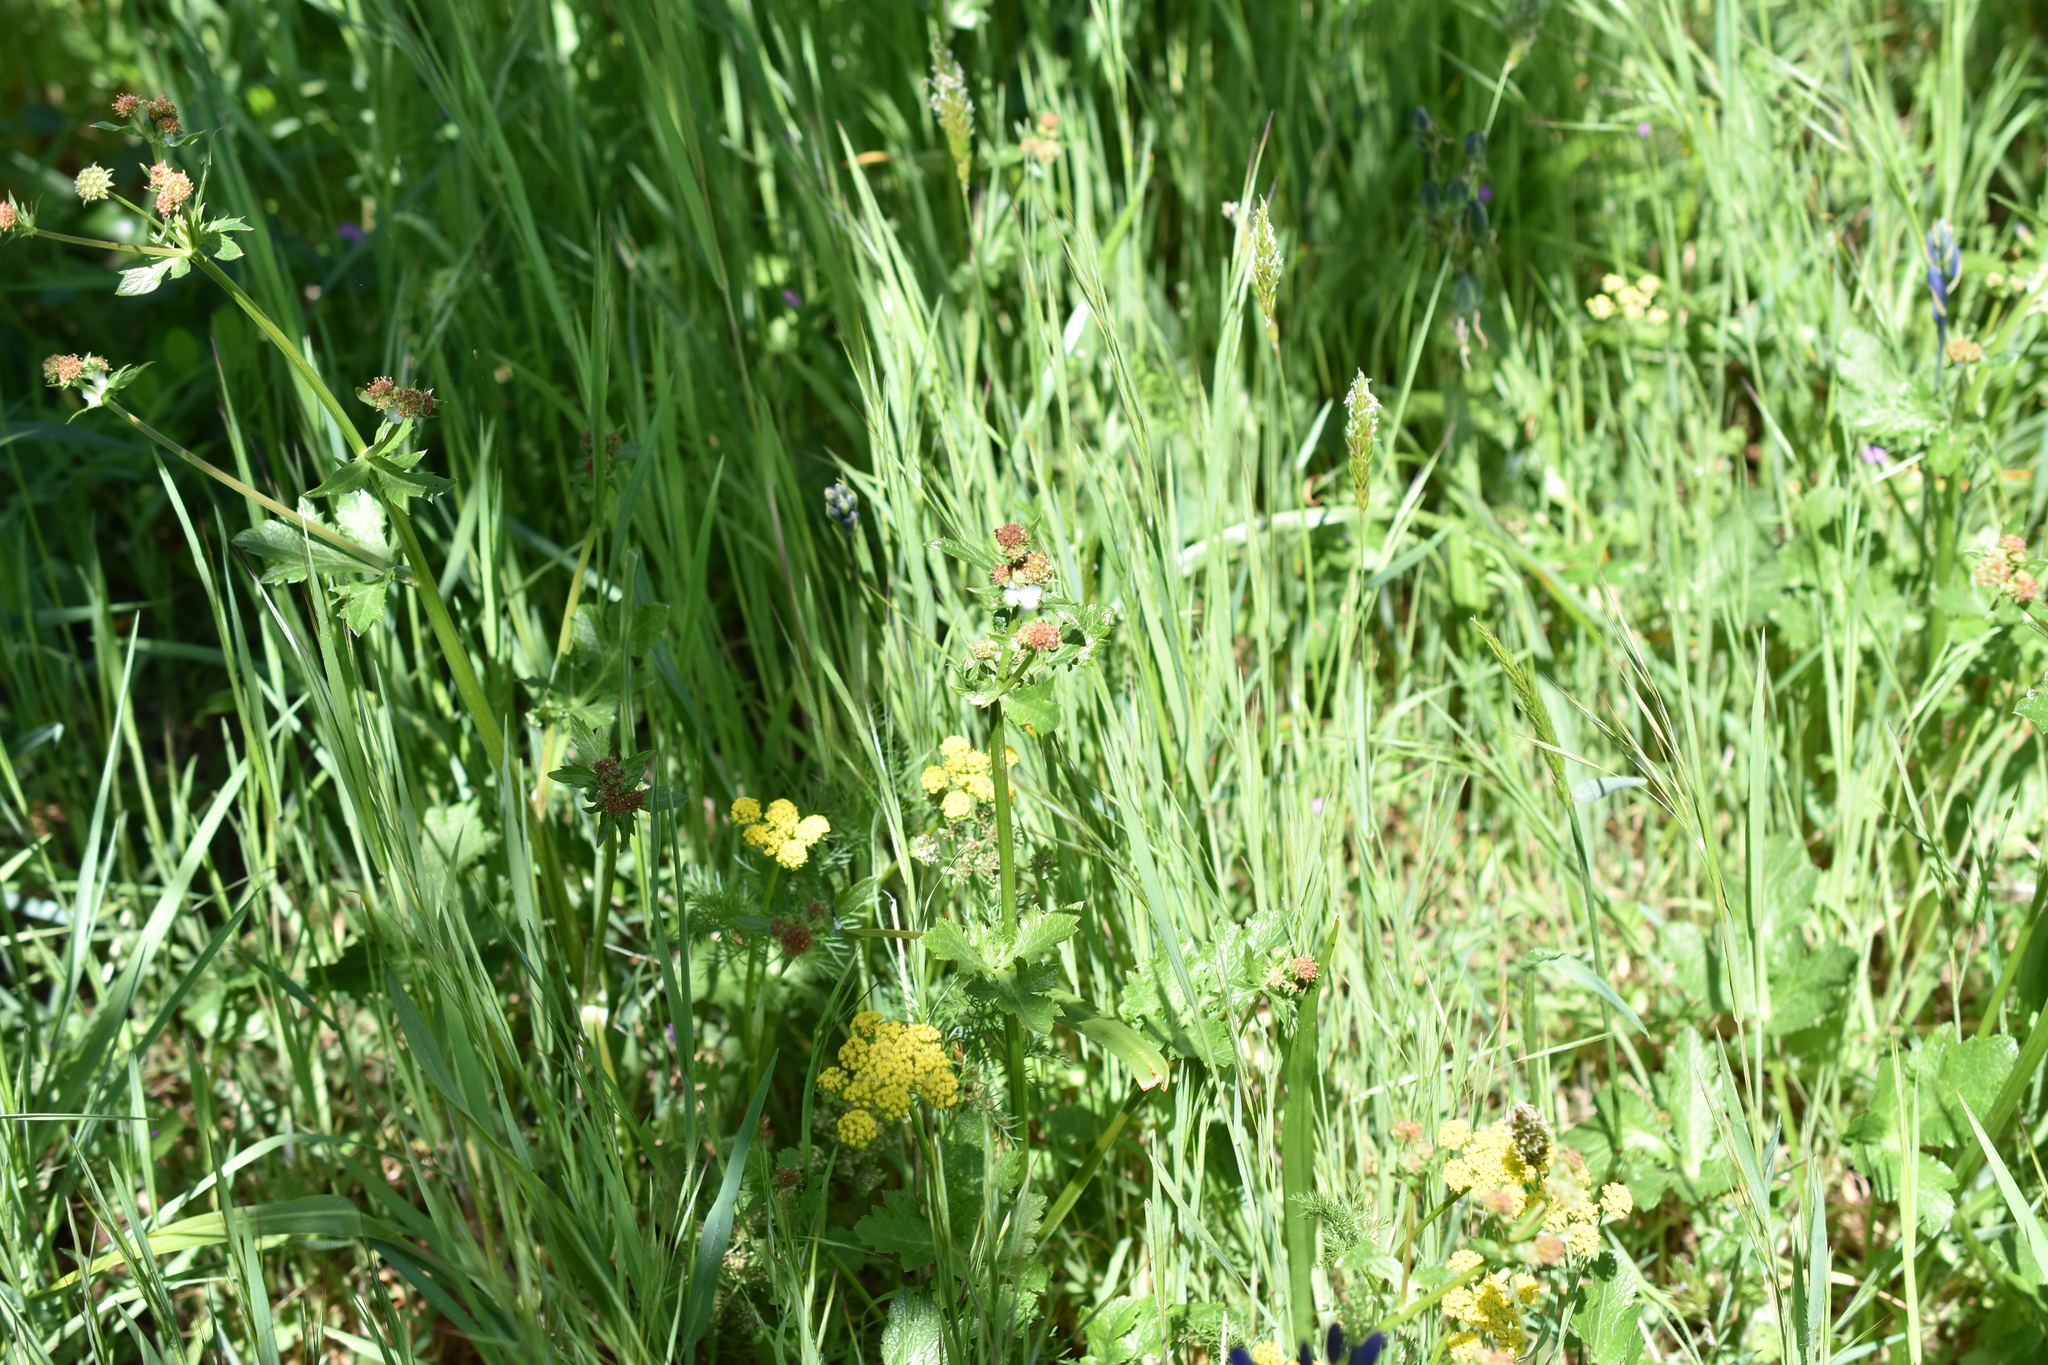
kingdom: Plantae
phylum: Tracheophyta
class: Magnoliopsida
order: Apiales
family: Apiaceae
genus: Sanicula
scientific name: Sanicula crassicaulis
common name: Western snakeroot
